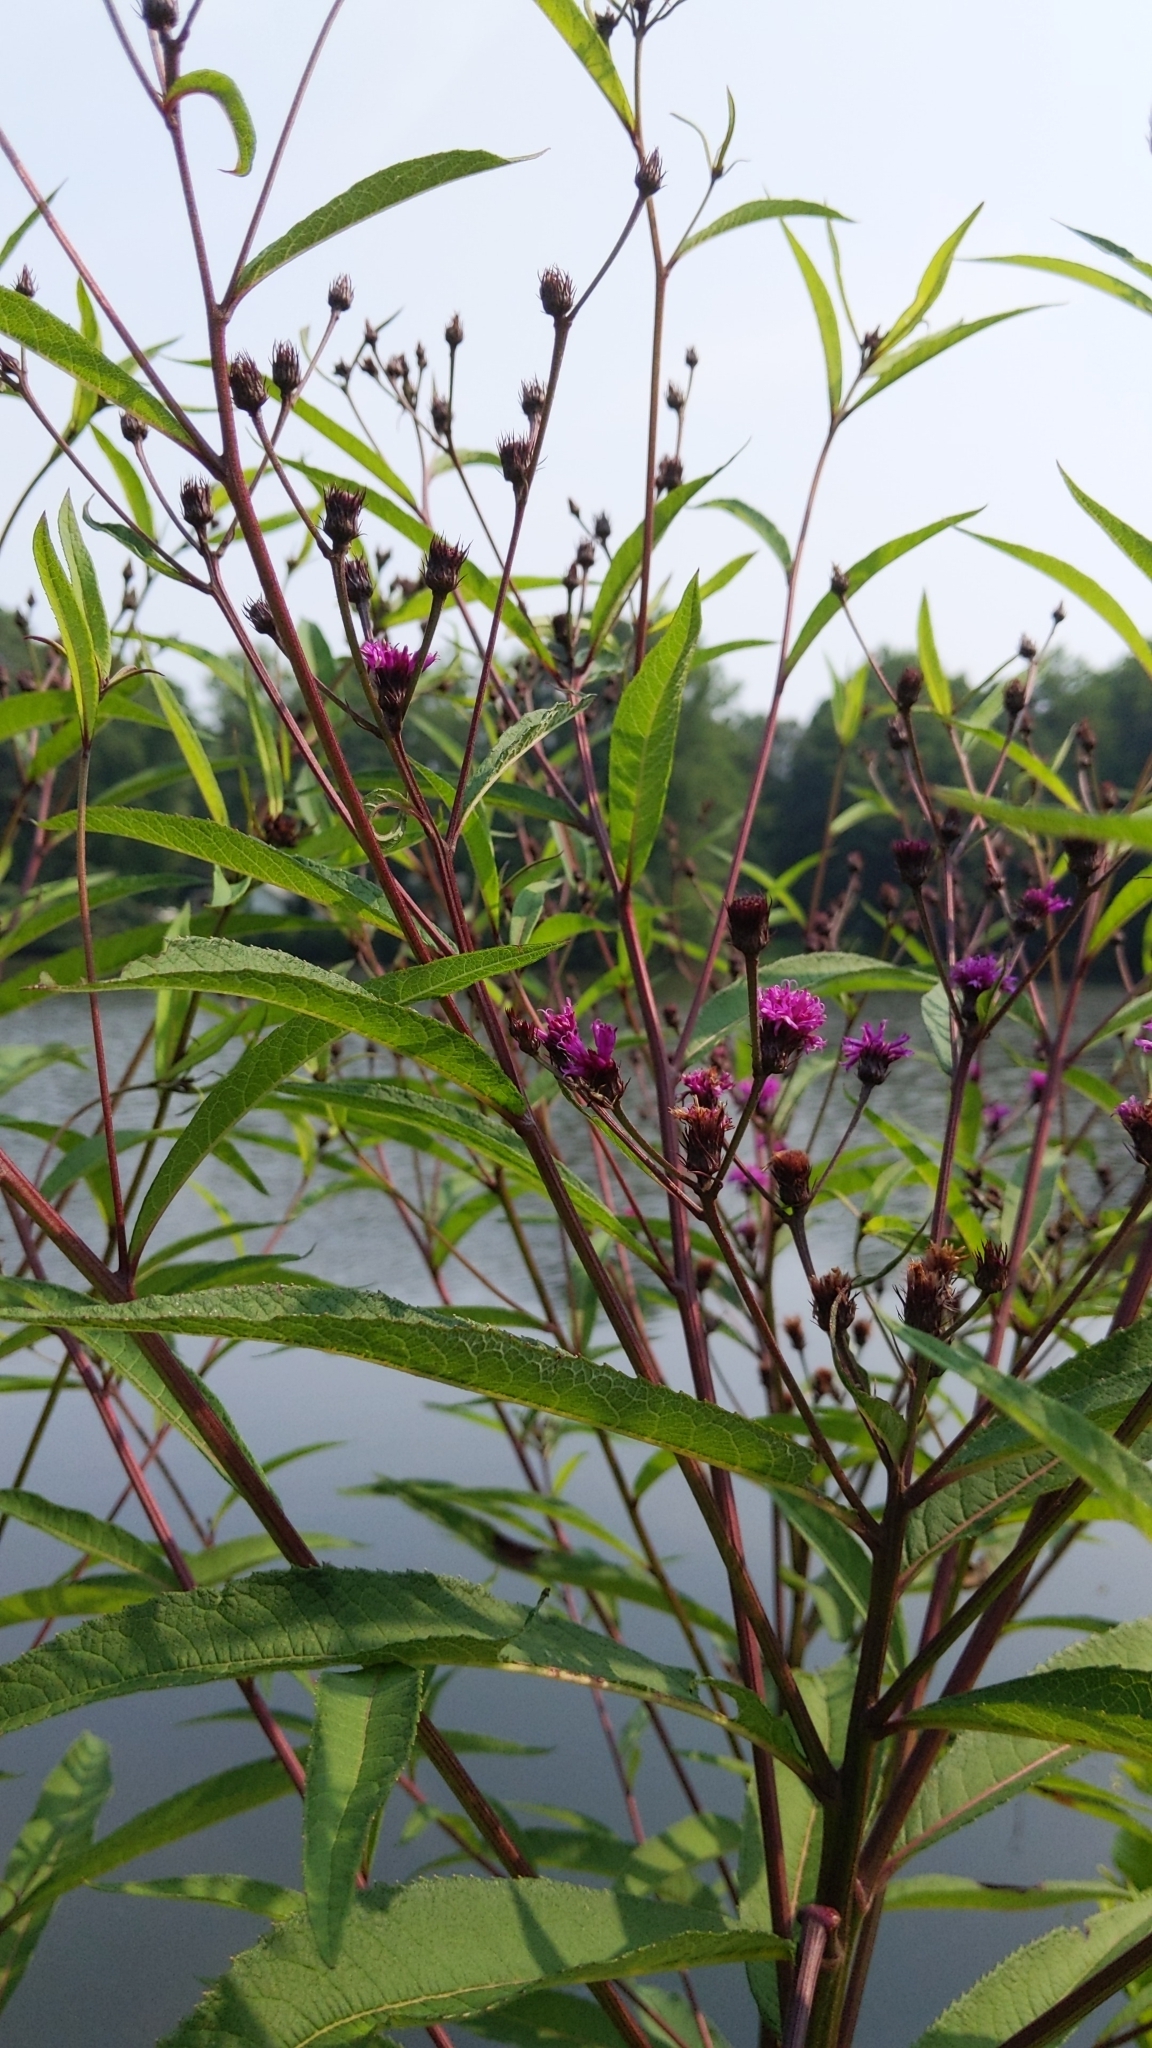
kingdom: Plantae
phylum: Tracheophyta
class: Magnoliopsida
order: Asterales
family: Asteraceae
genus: Vernonia
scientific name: Vernonia noveboracensis
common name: New york ironweed
